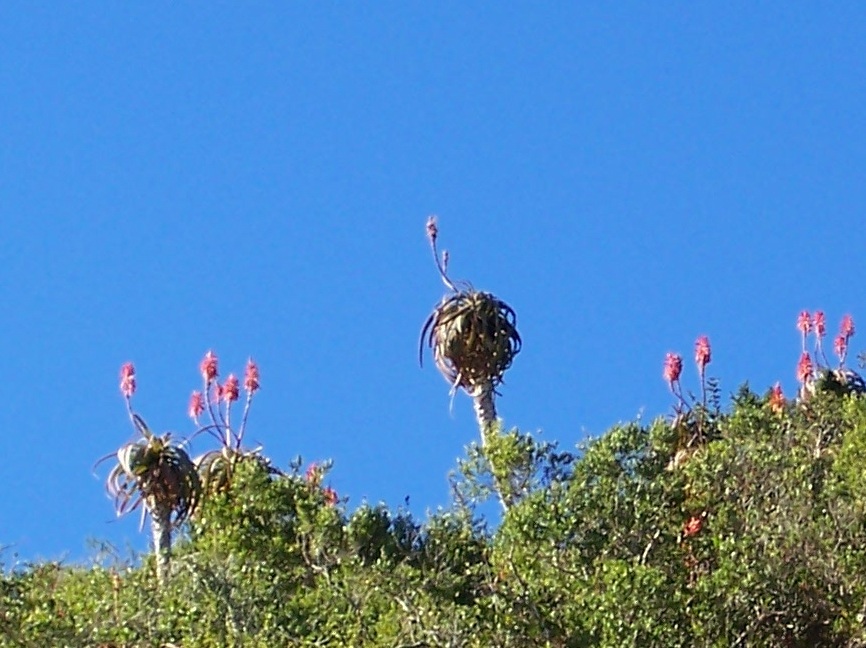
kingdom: Plantae
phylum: Tracheophyta
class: Liliopsida
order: Asparagales
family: Asphodelaceae
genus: Aloe
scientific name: Aloe pluridens
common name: French aloe
